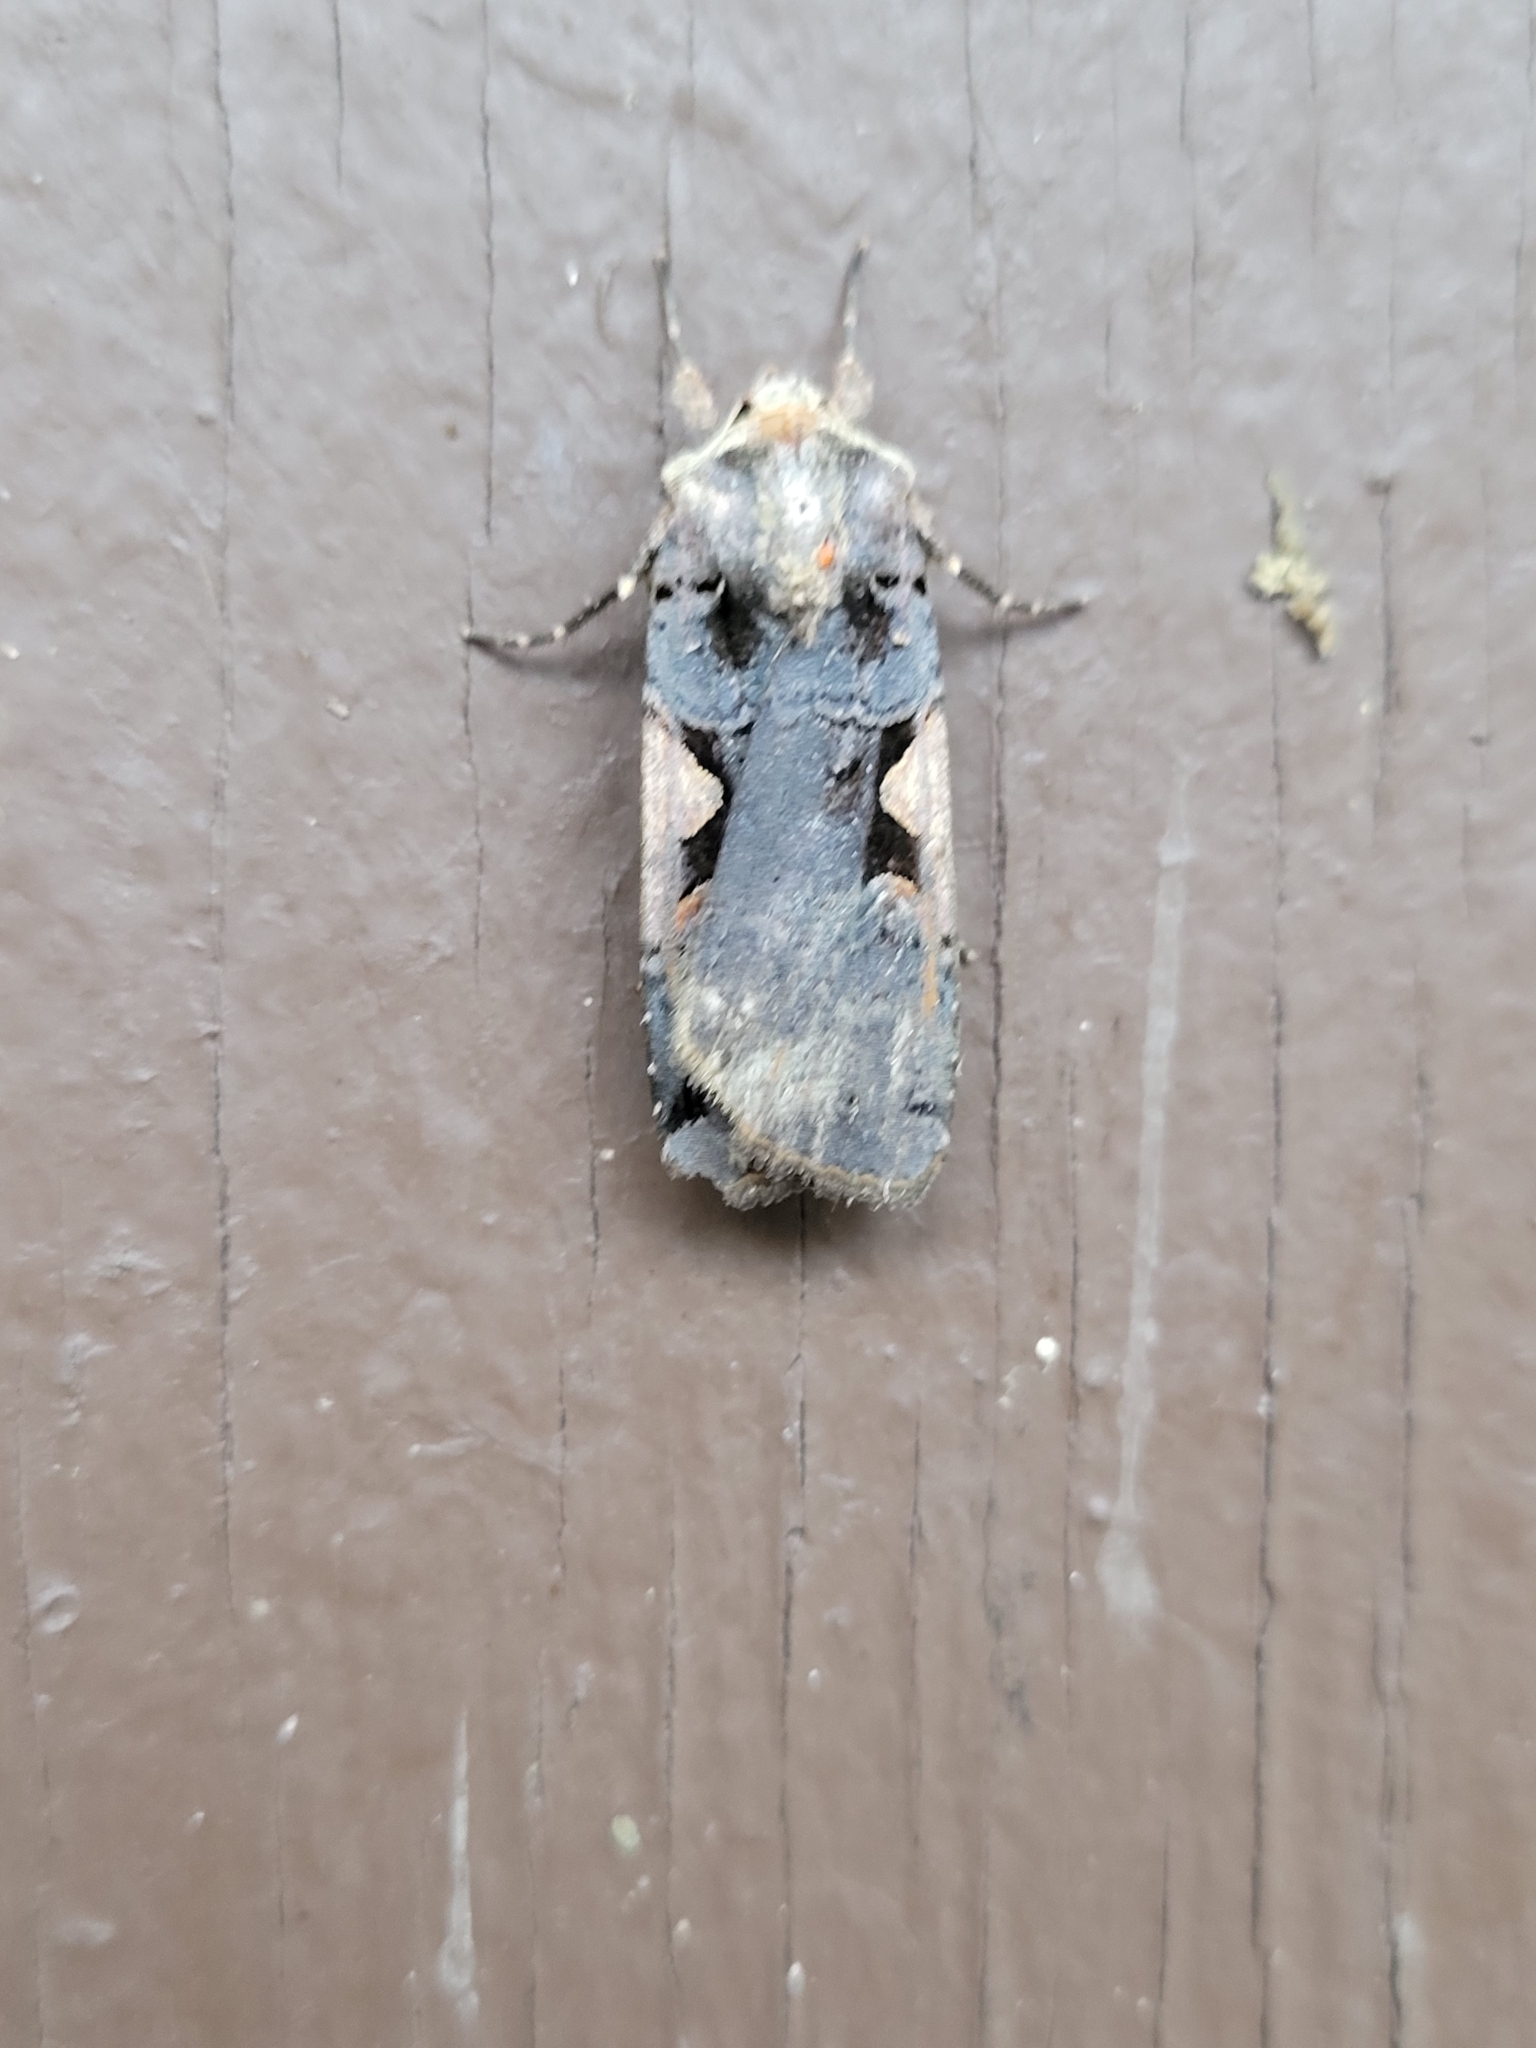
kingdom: Animalia
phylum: Arthropoda
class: Insecta
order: Lepidoptera
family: Noctuidae
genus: Xestia
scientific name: Xestia dolosa
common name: Cutworm moth
